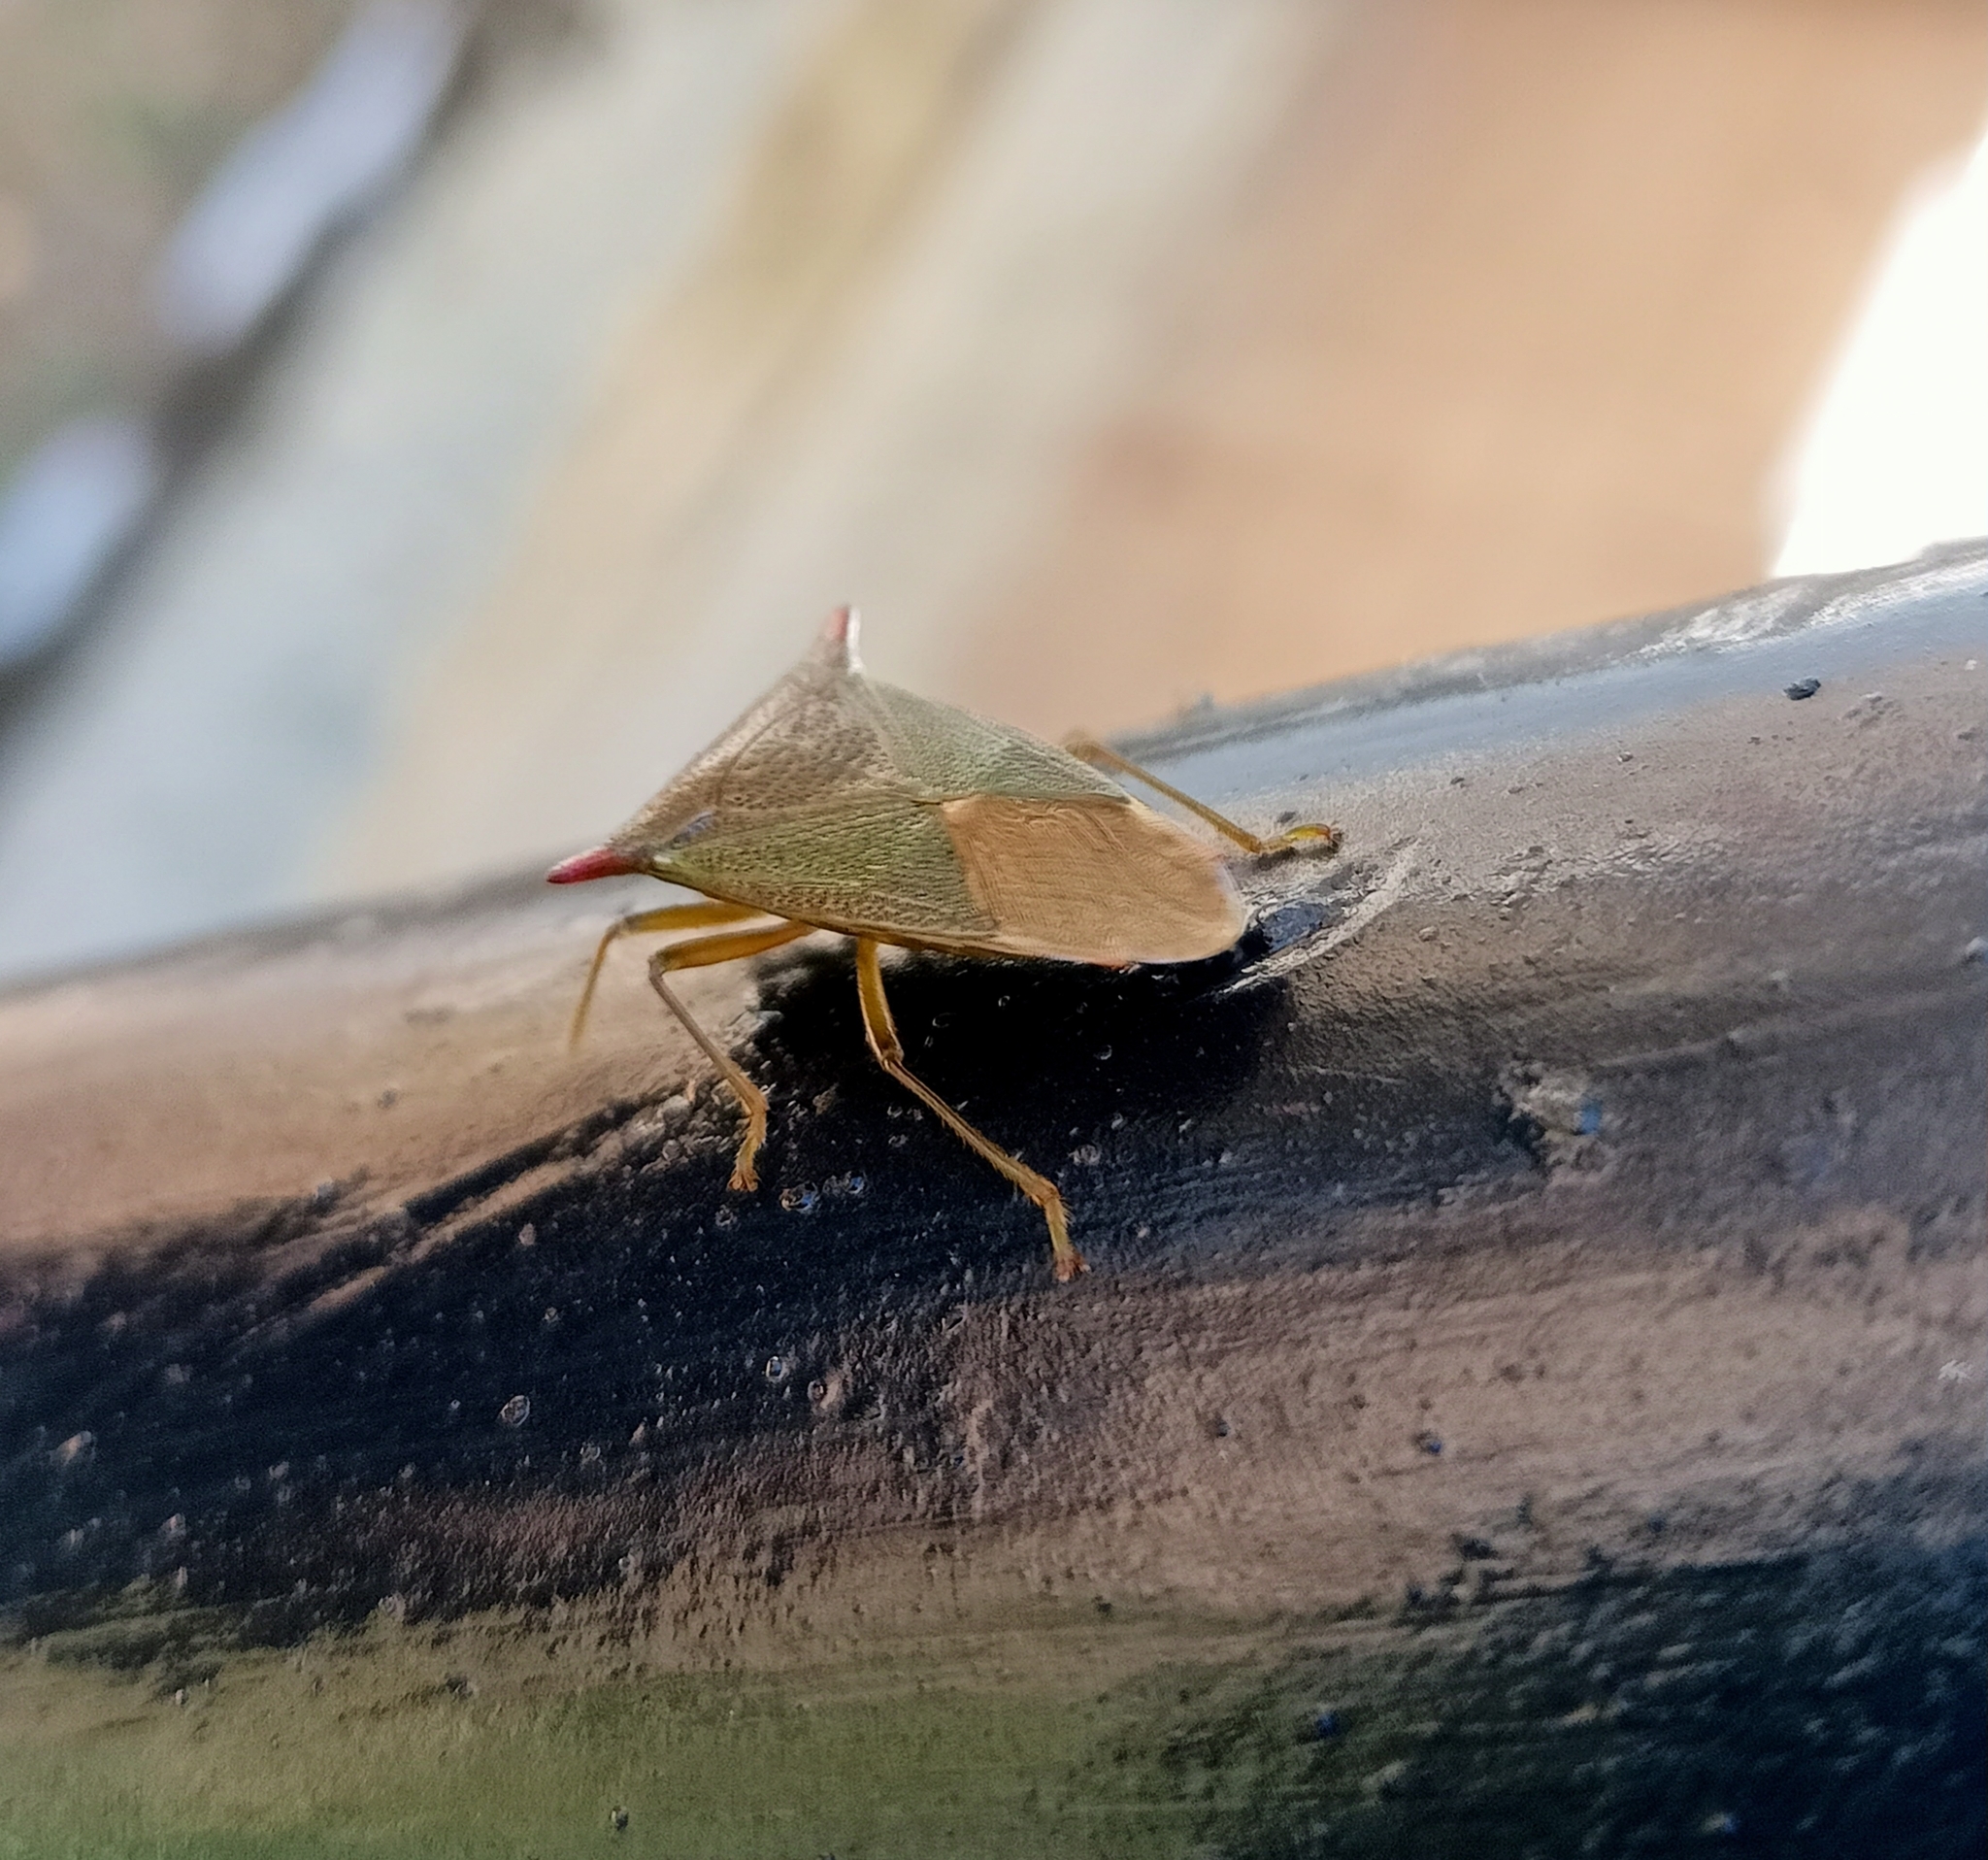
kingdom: Animalia
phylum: Arthropoda
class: Insecta
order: Hemiptera
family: Acanthosomatidae
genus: Acanthosoma
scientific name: Acanthosoma rufispinum
